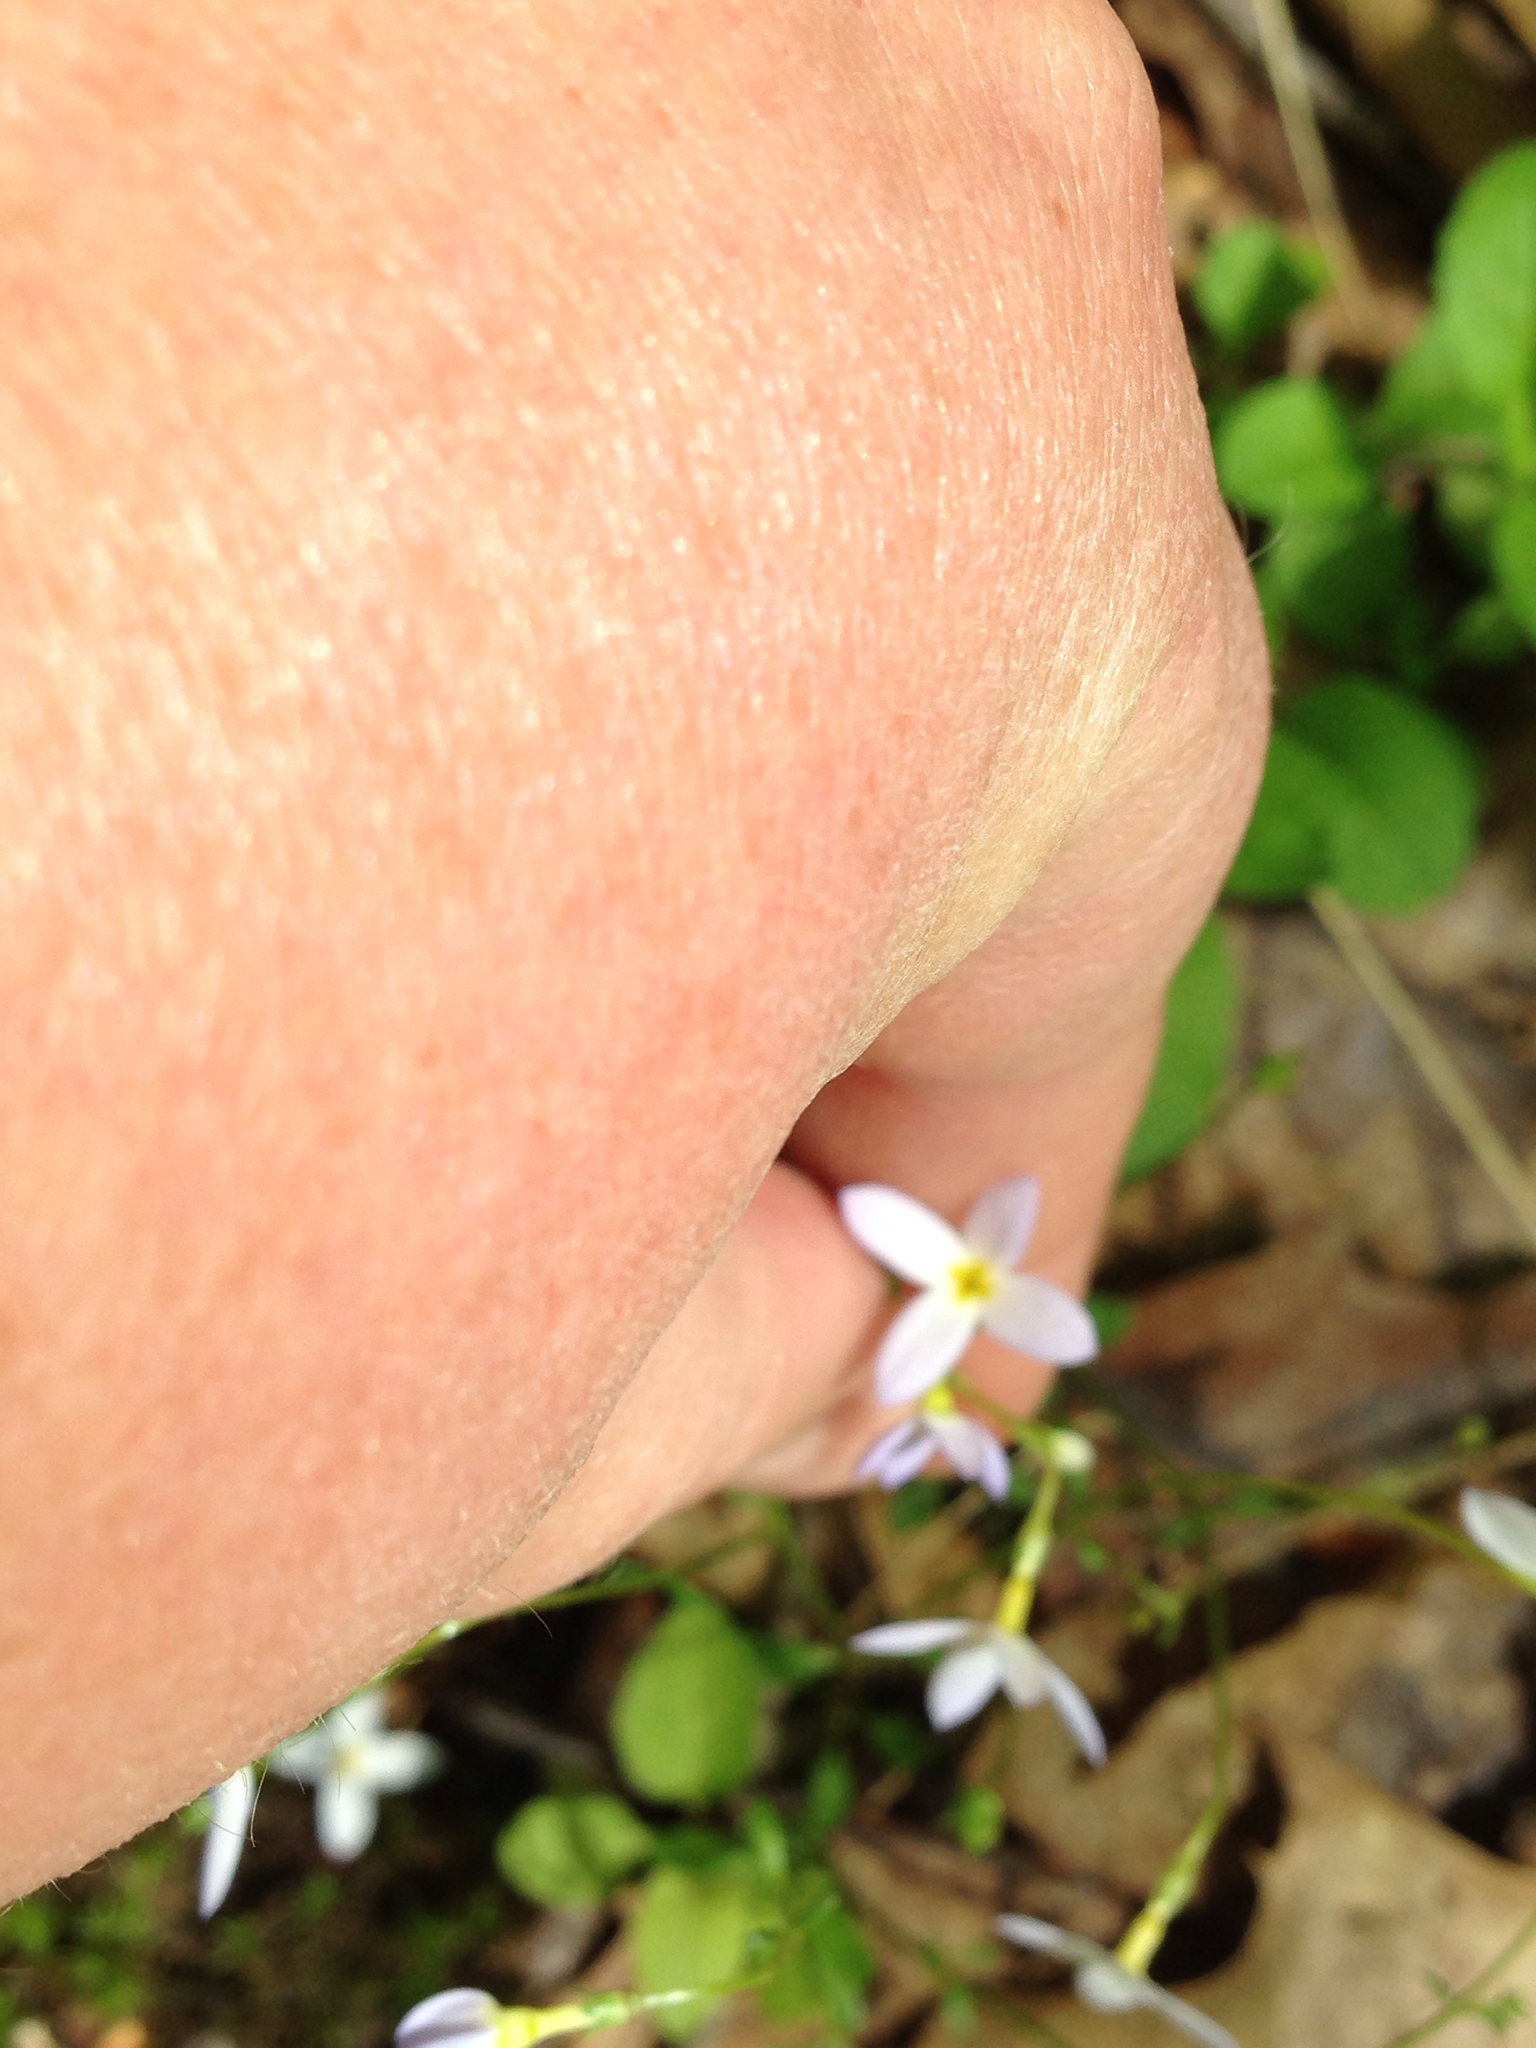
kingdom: Plantae
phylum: Tracheophyta
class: Magnoliopsida
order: Gentianales
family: Rubiaceae
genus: Houstonia
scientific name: Houstonia caerulea
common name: Bluets
